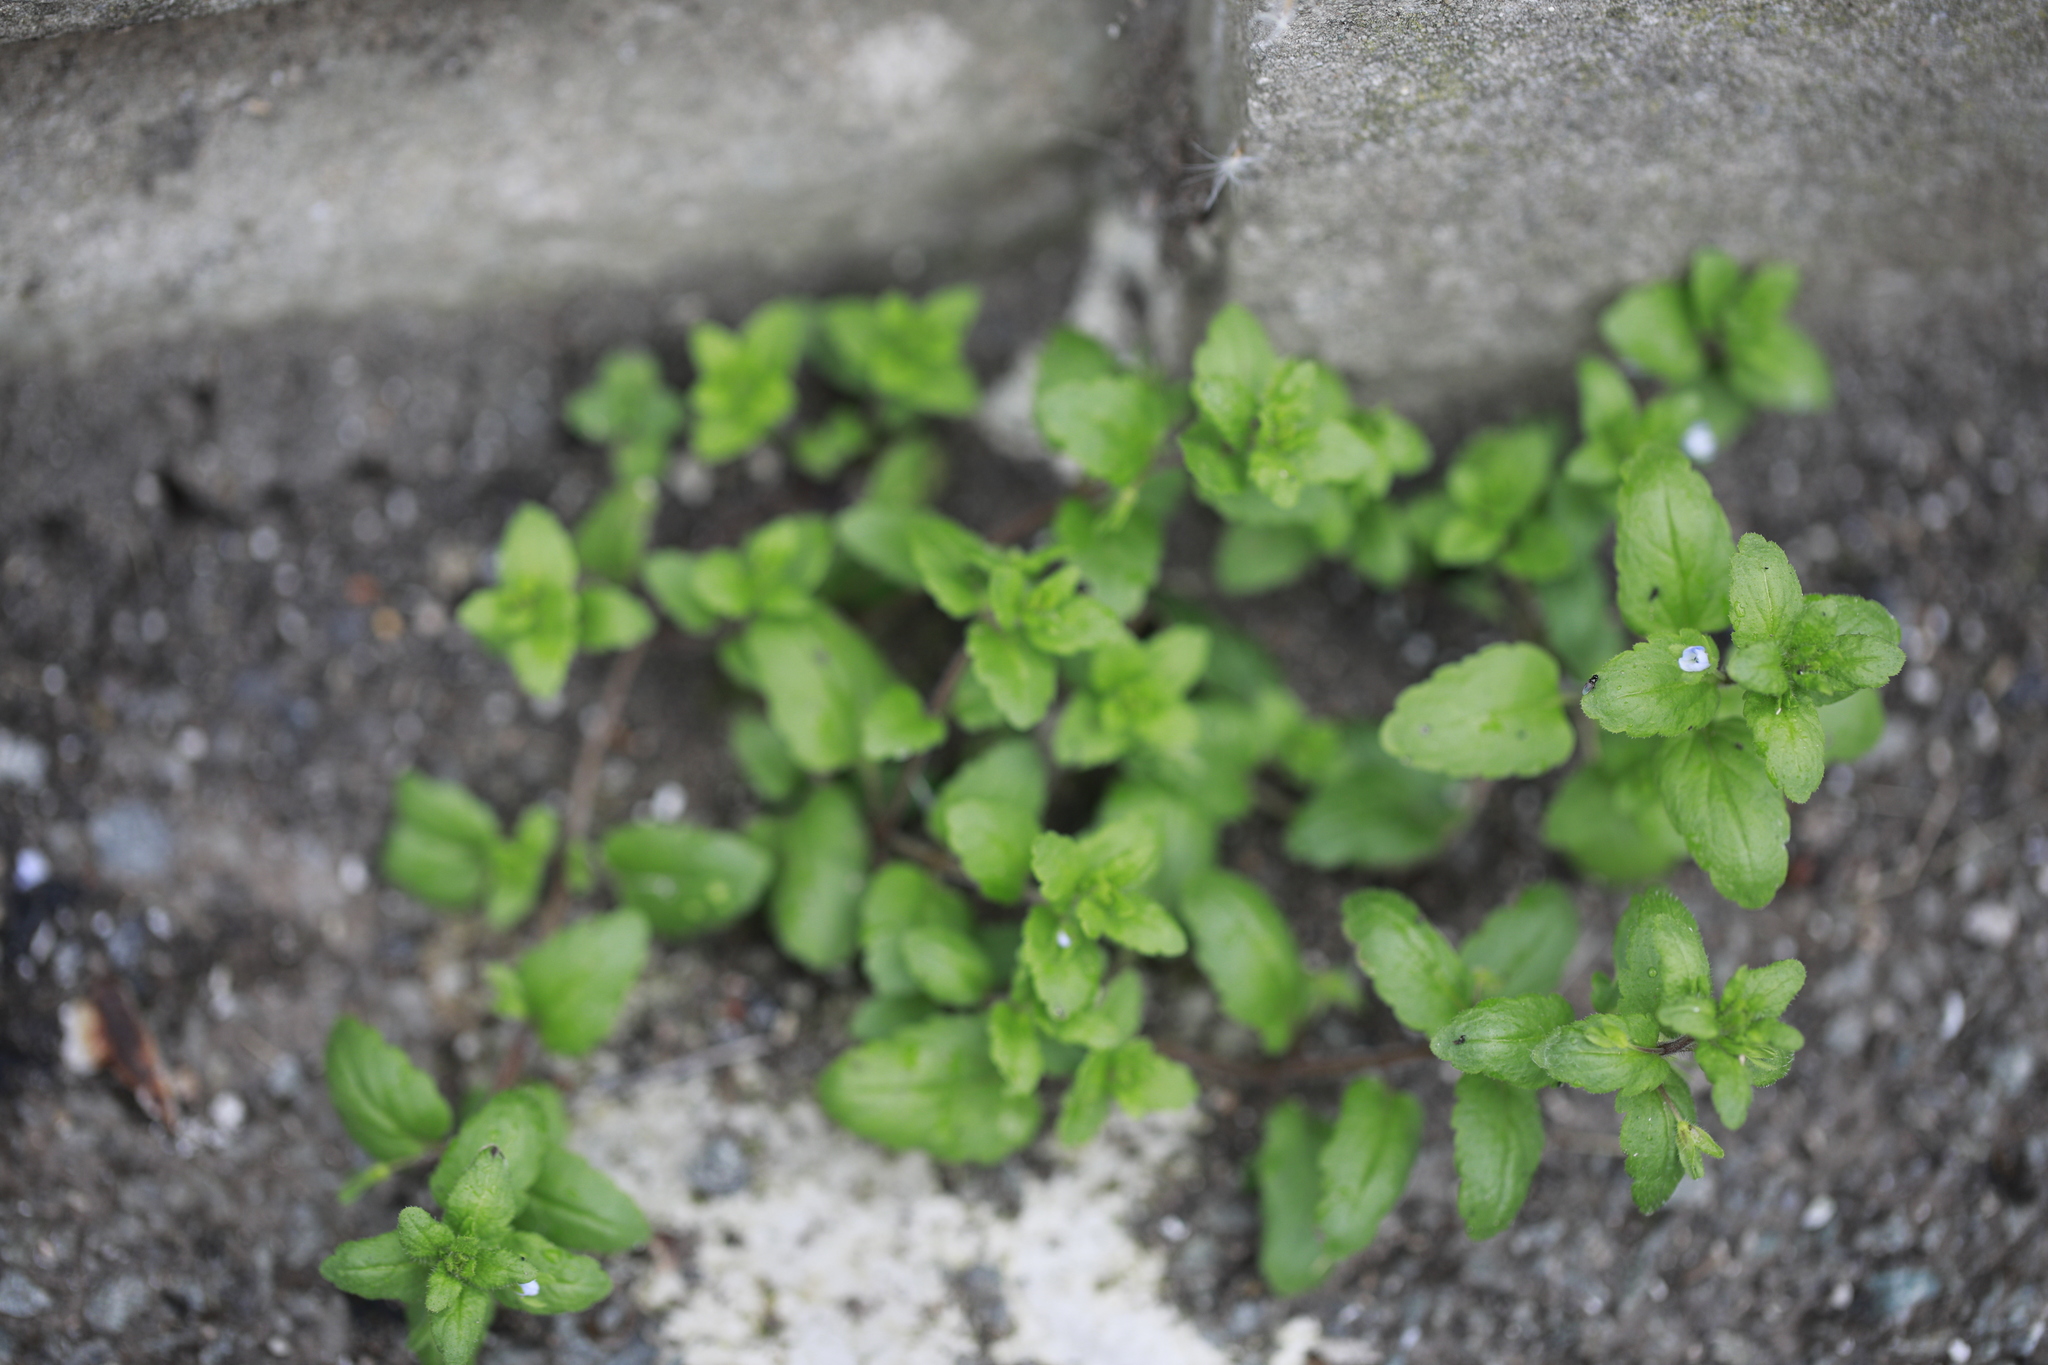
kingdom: Plantae
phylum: Tracheophyta
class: Magnoliopsida
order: Lamiales
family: Plantaginaceae
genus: Veronica
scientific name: Veronica agrestis
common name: Green field-speedwell
